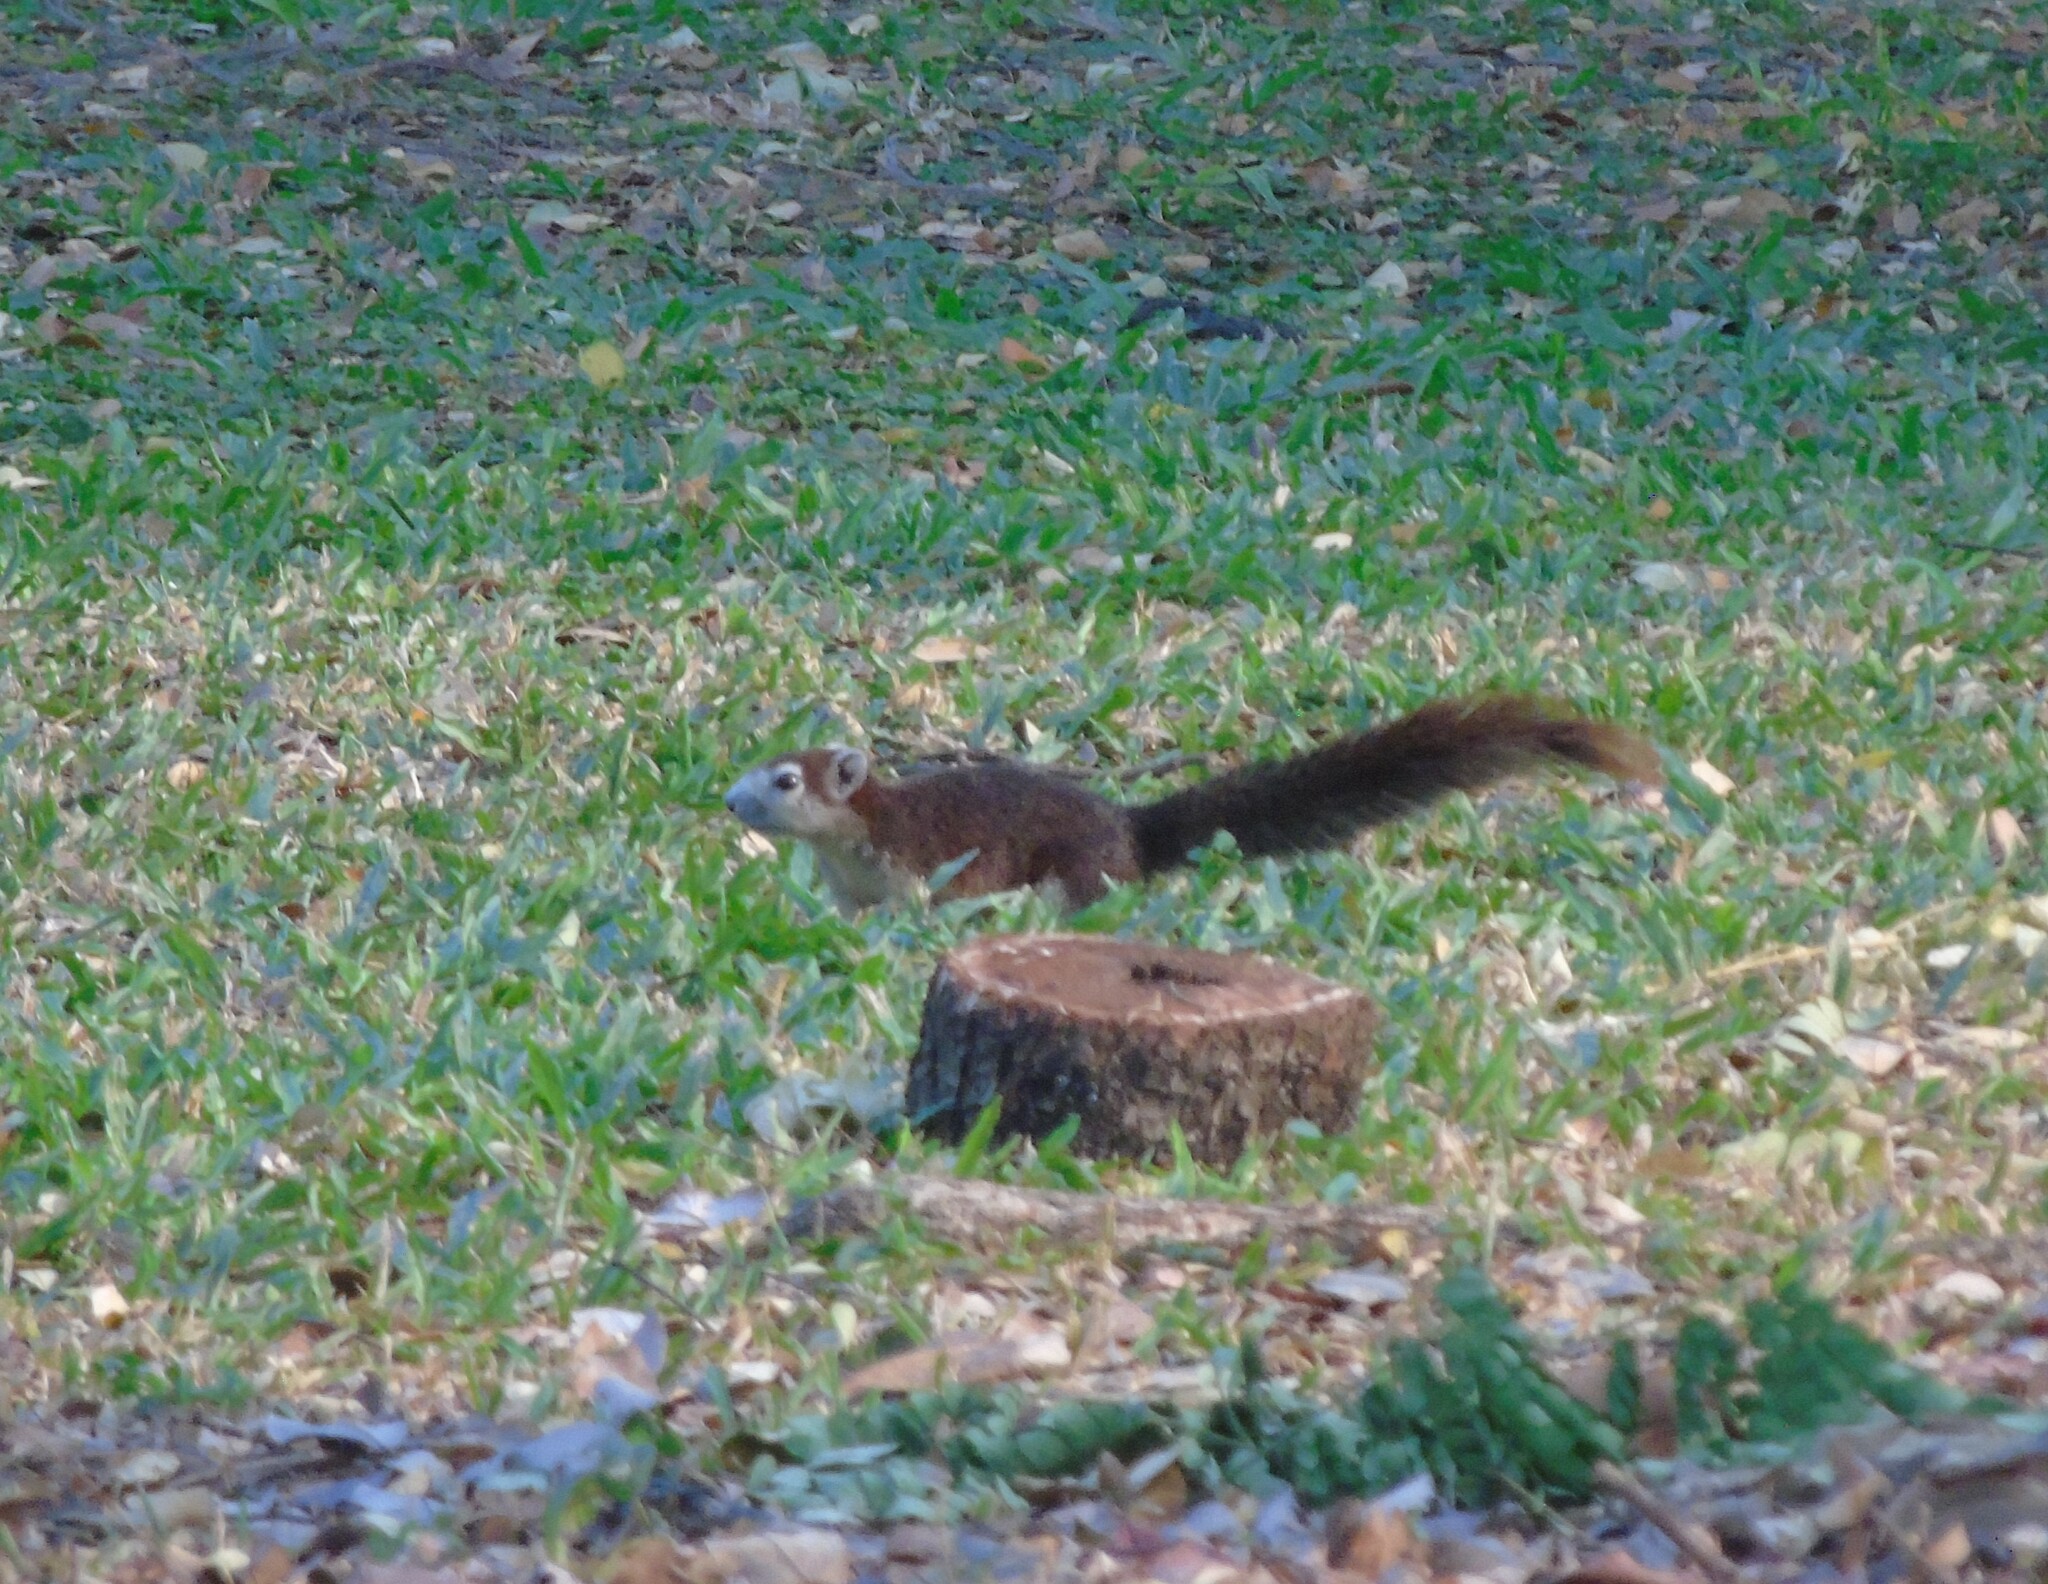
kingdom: Animalia
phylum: Chordata
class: Mammalia
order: Rodentia
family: Sciuridae
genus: Callosciurus
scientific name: Callosciurus finlaysonii
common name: Finlayson's squirrel
